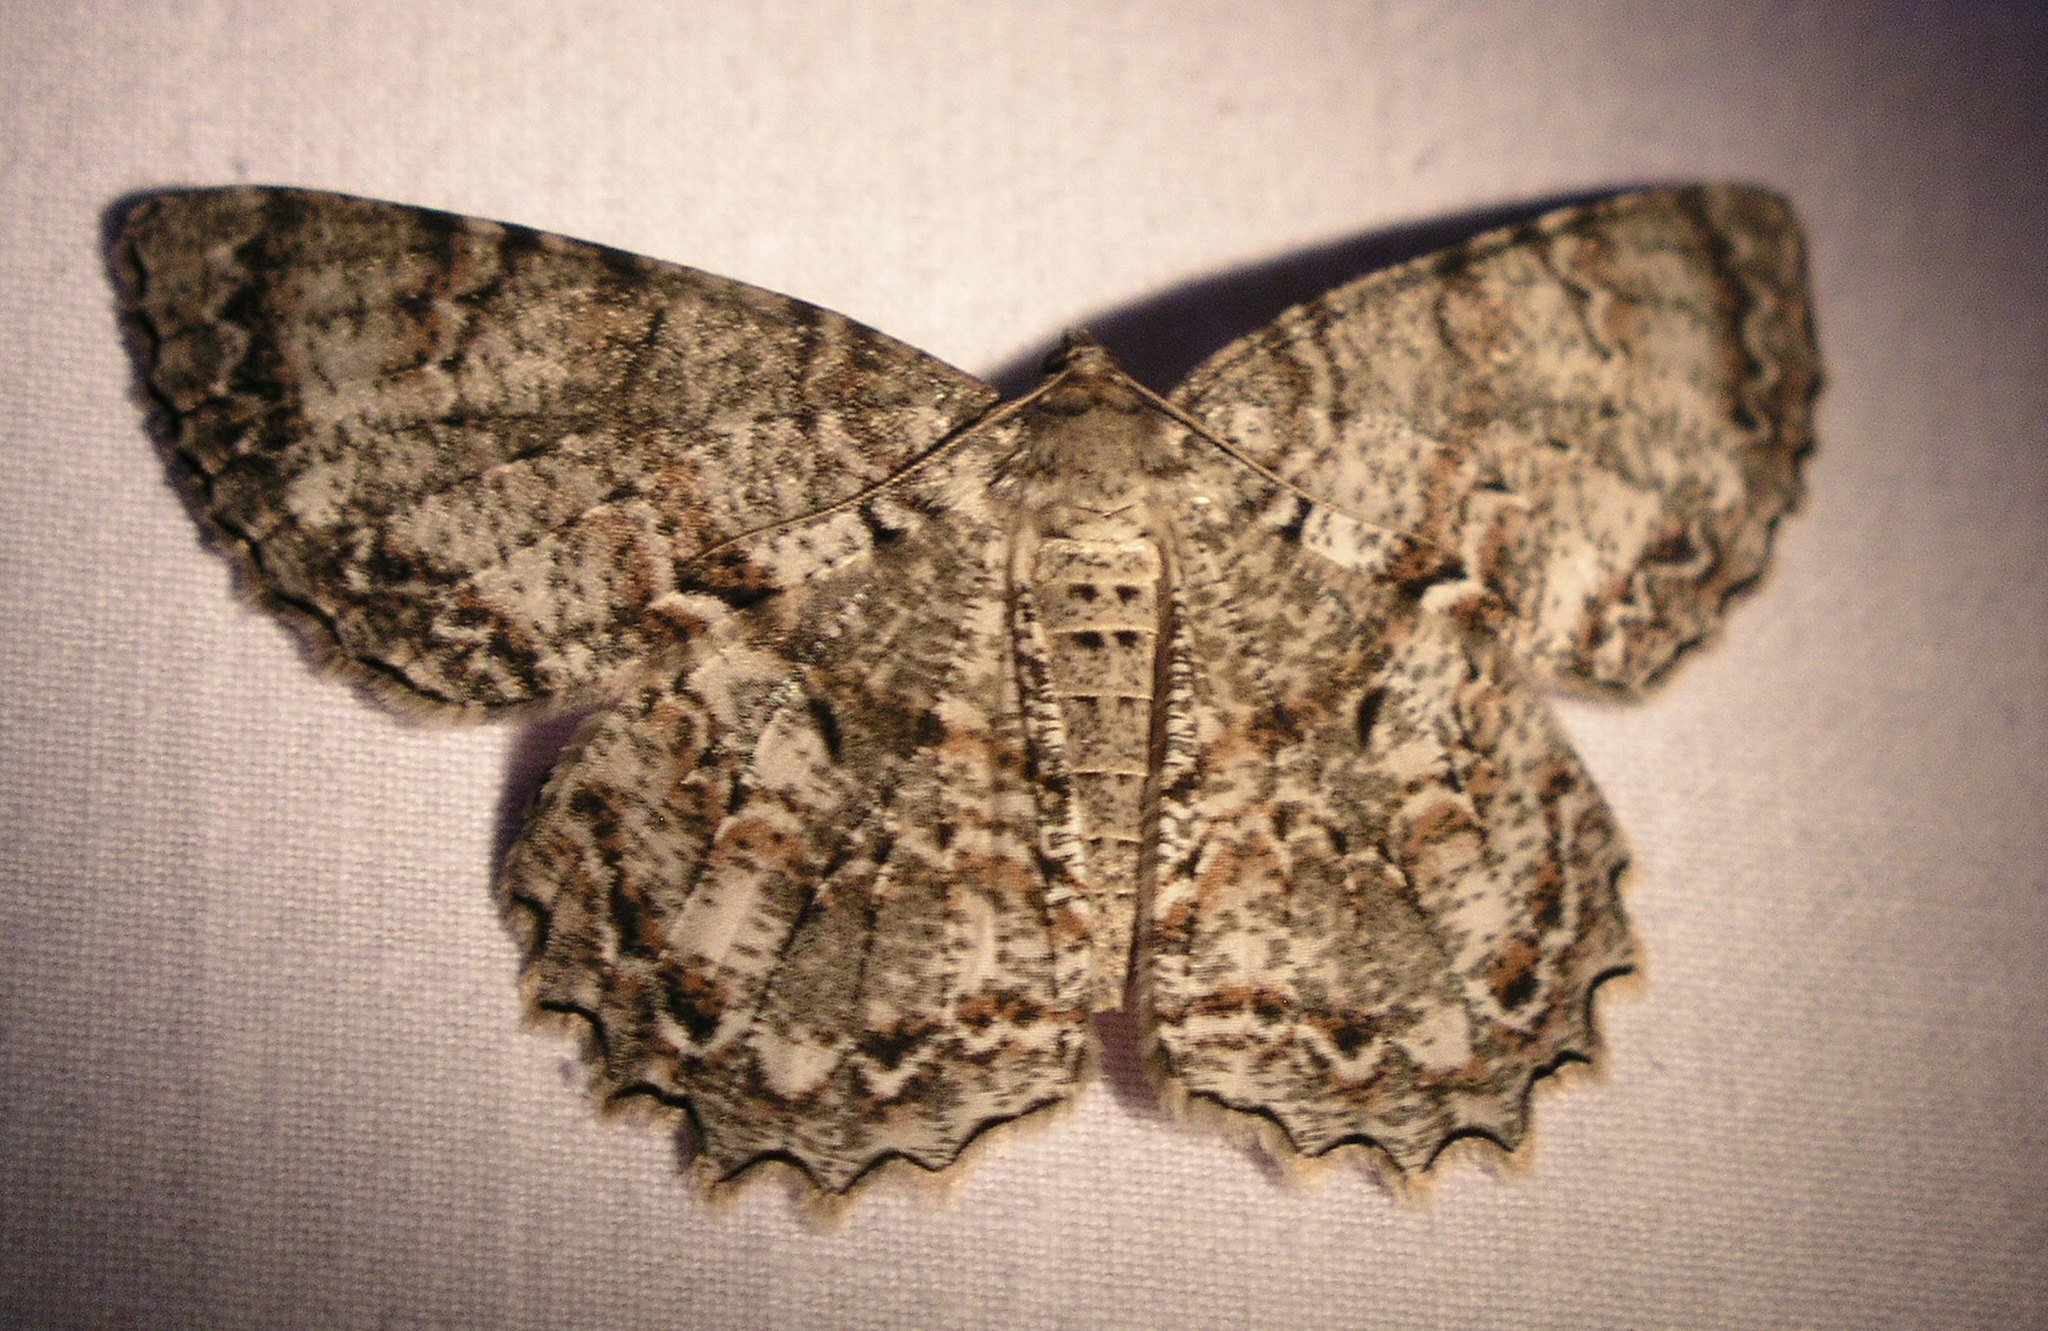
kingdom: Animalia
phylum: Arthropoda
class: Insecta
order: Lepidoptera
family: Geometridae
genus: Epimecis
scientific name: Epimecis hortaria
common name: Tulip-tree beauty
